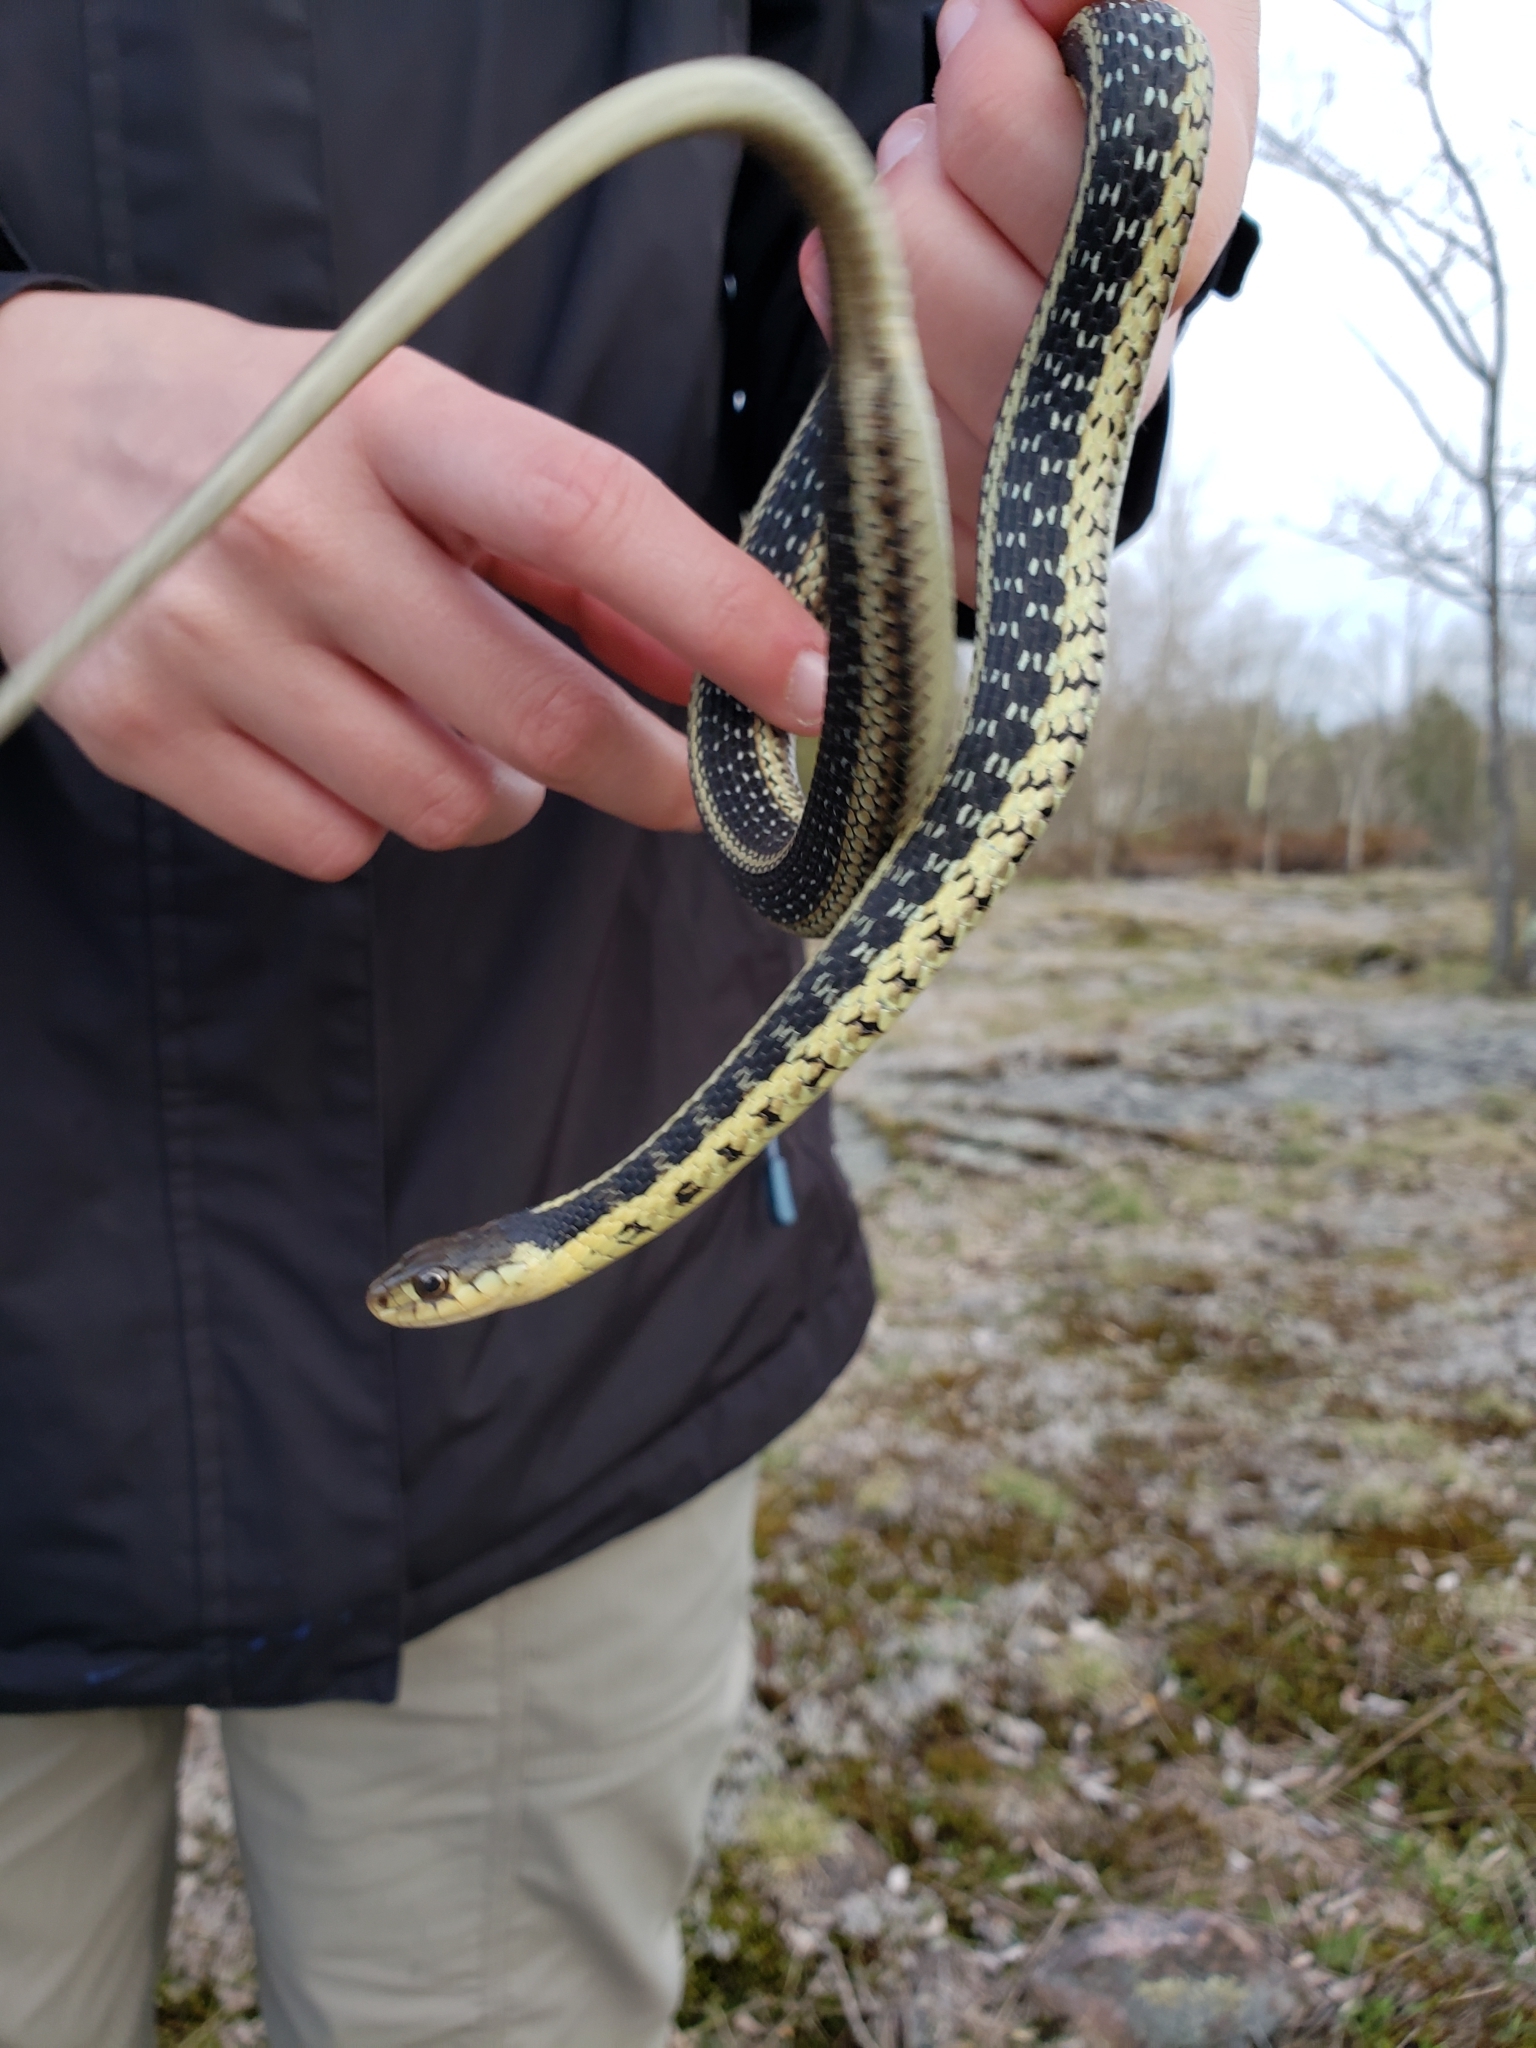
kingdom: Animalia
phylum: Chordata
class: Squamata
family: Colubridae
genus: Thamnophis
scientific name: Thamnophis sirtalis
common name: Common garter snake
